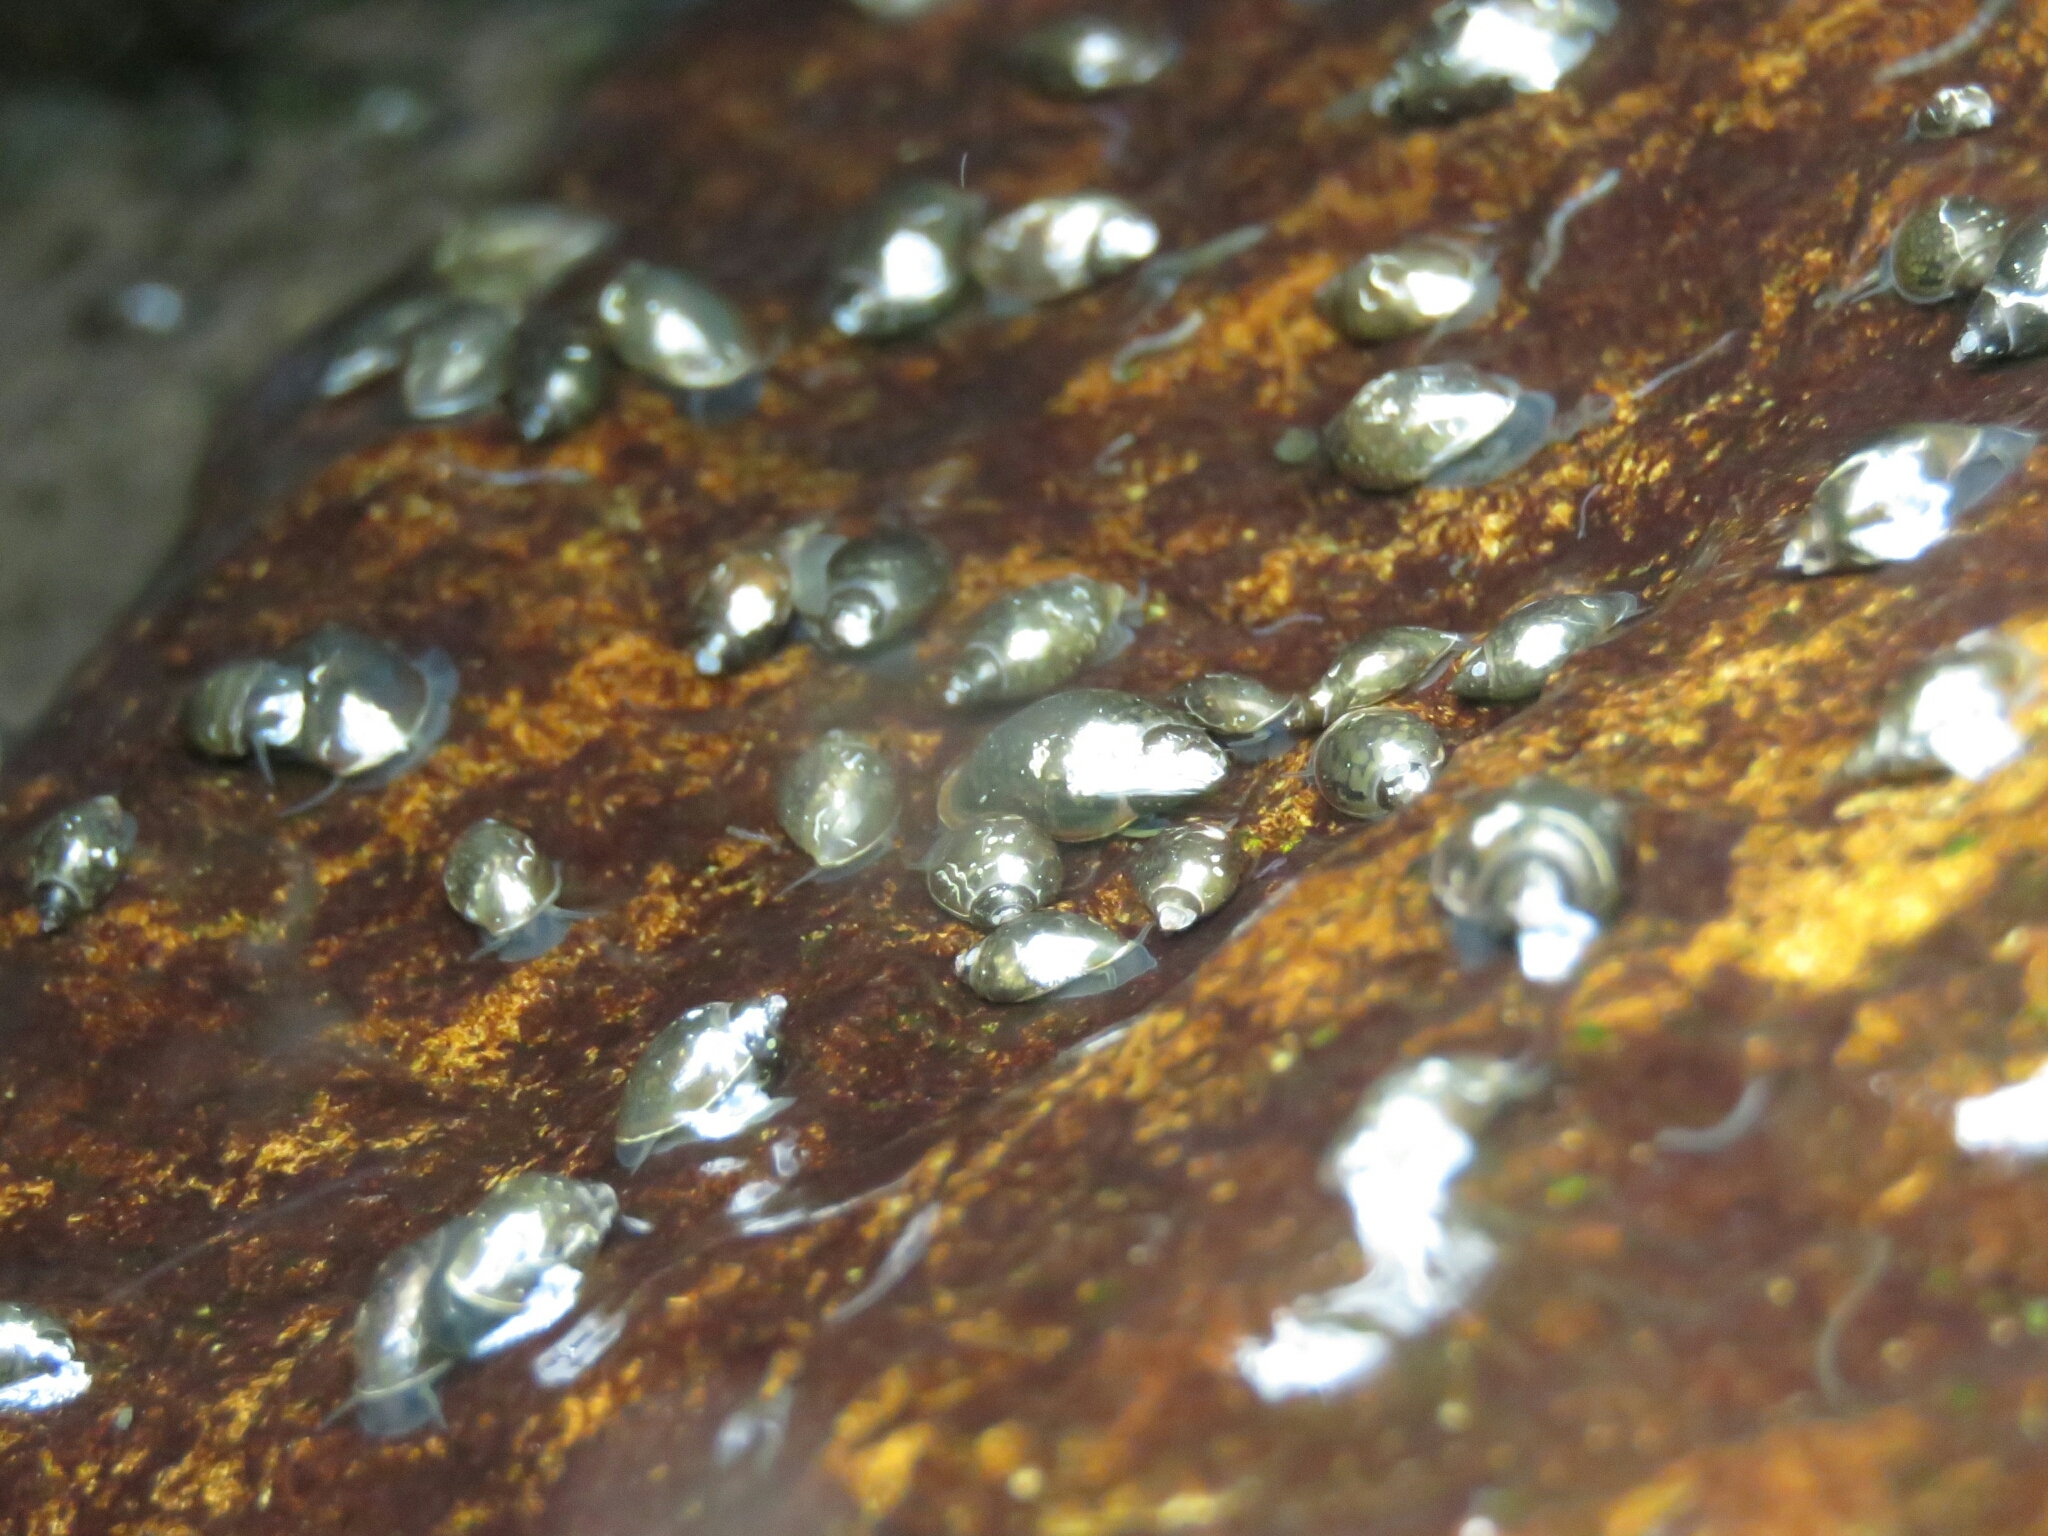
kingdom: Animalia
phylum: Mollusca
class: Gastropoda
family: Physidae
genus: Physella
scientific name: Physella acuta
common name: European physa
